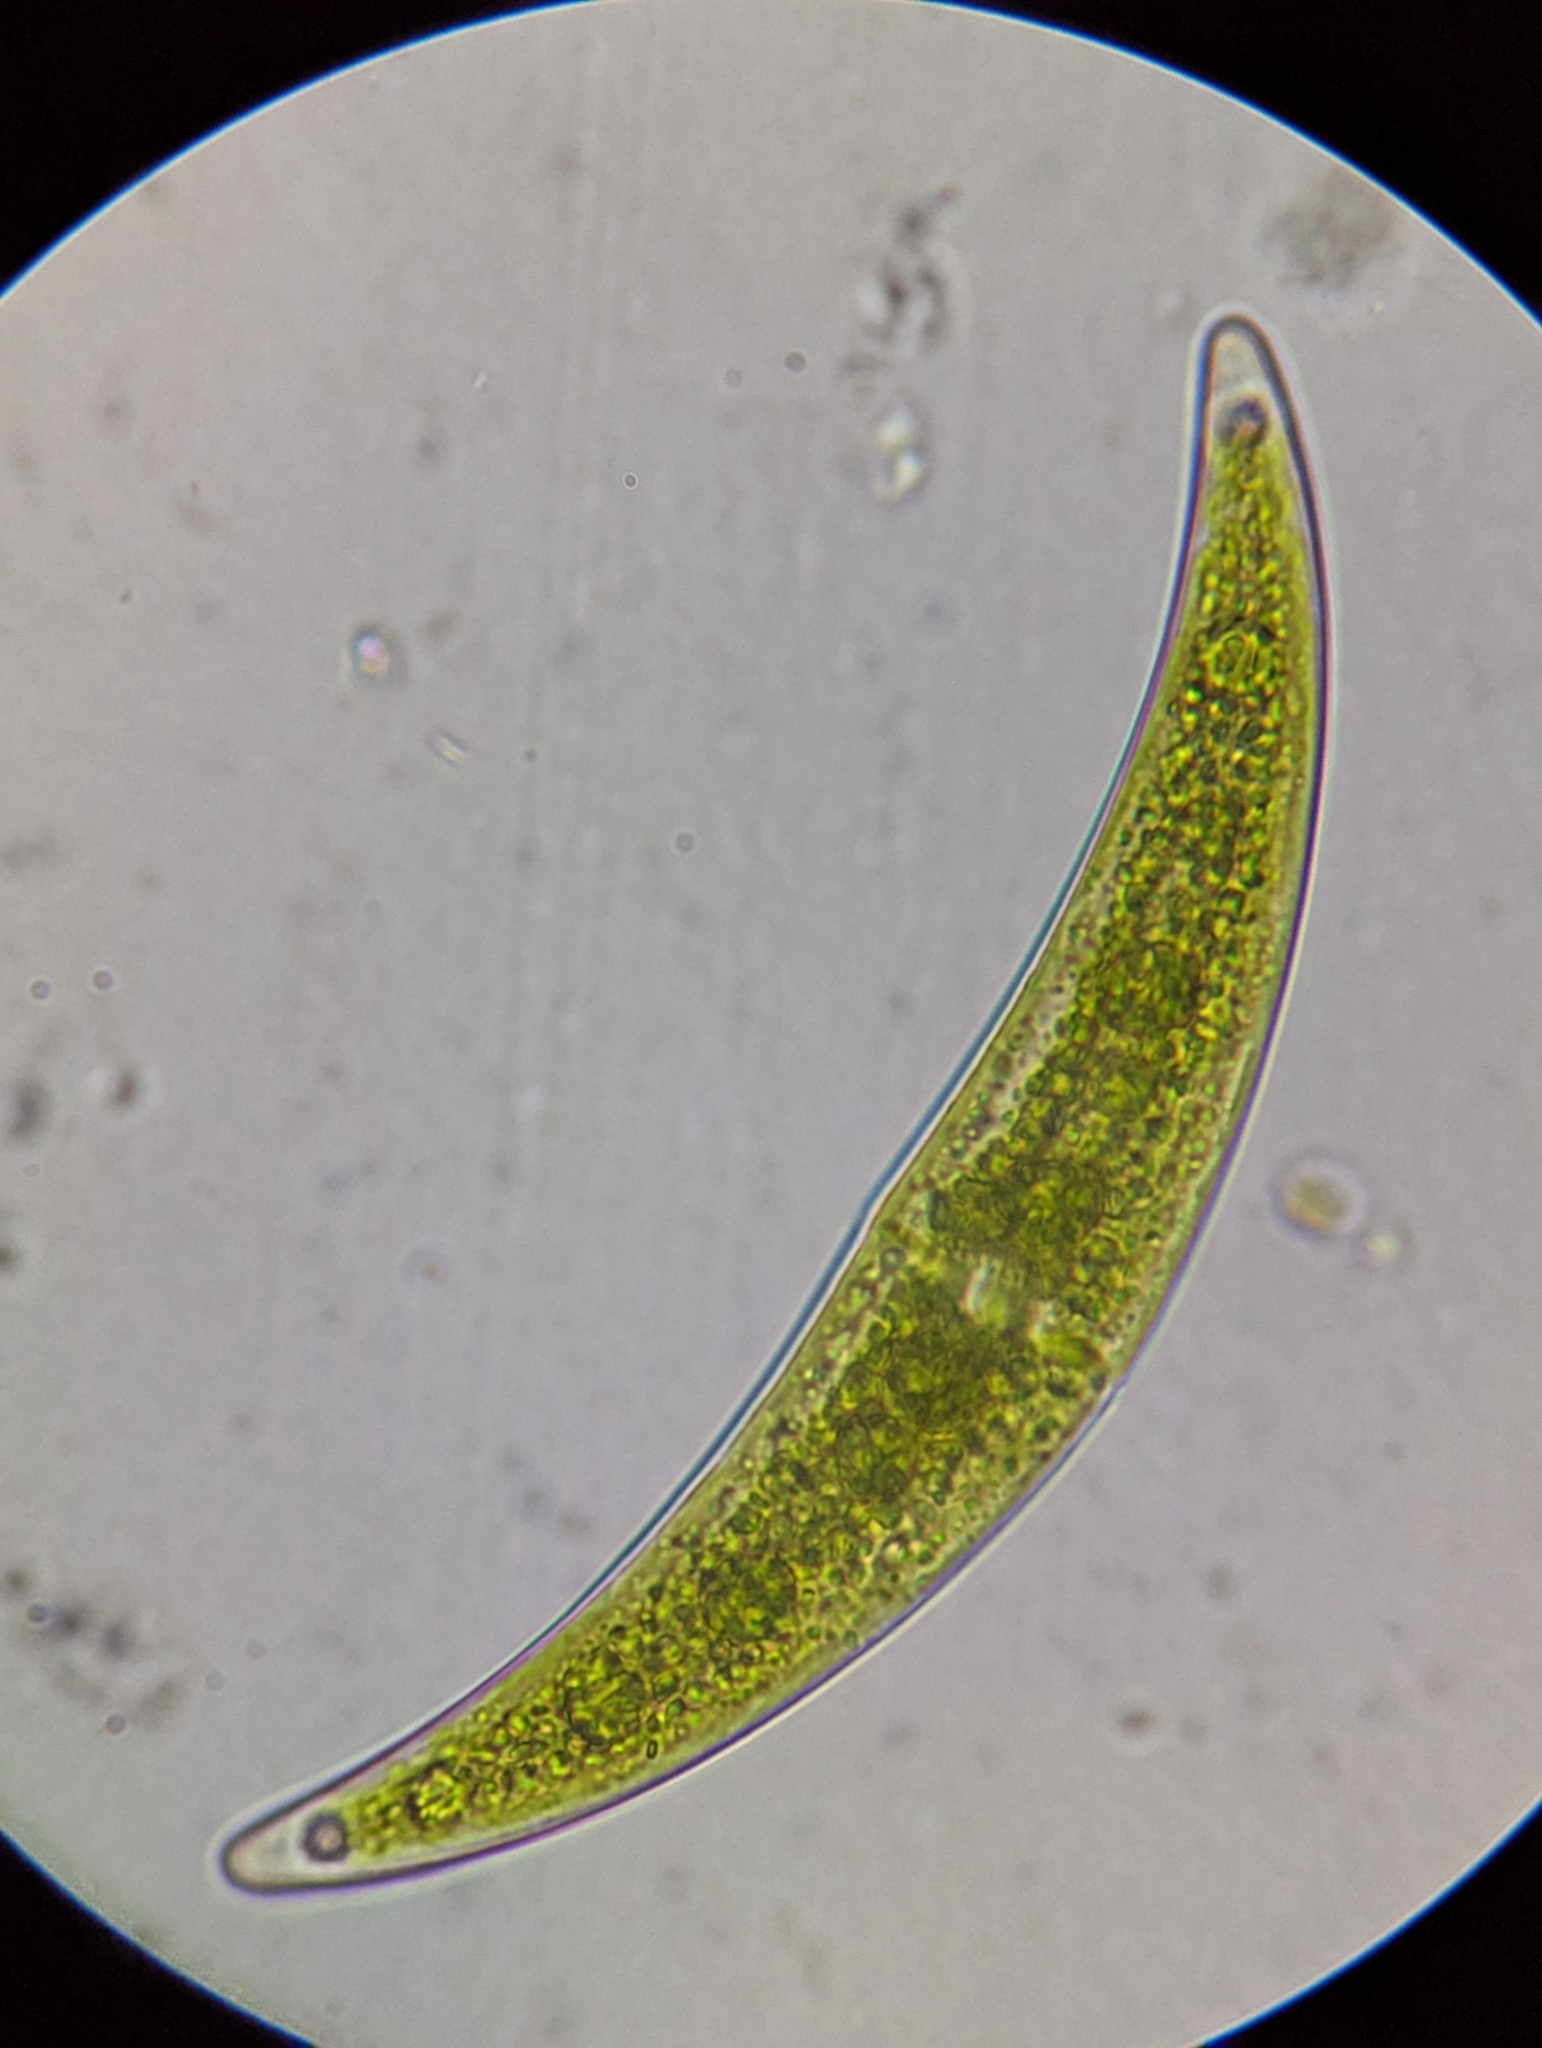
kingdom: Plantae
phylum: Charophyta
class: Zygnematophyceae
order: Zygnematales
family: Closteriaceae
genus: Closterium
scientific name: Closterium moniliferum
